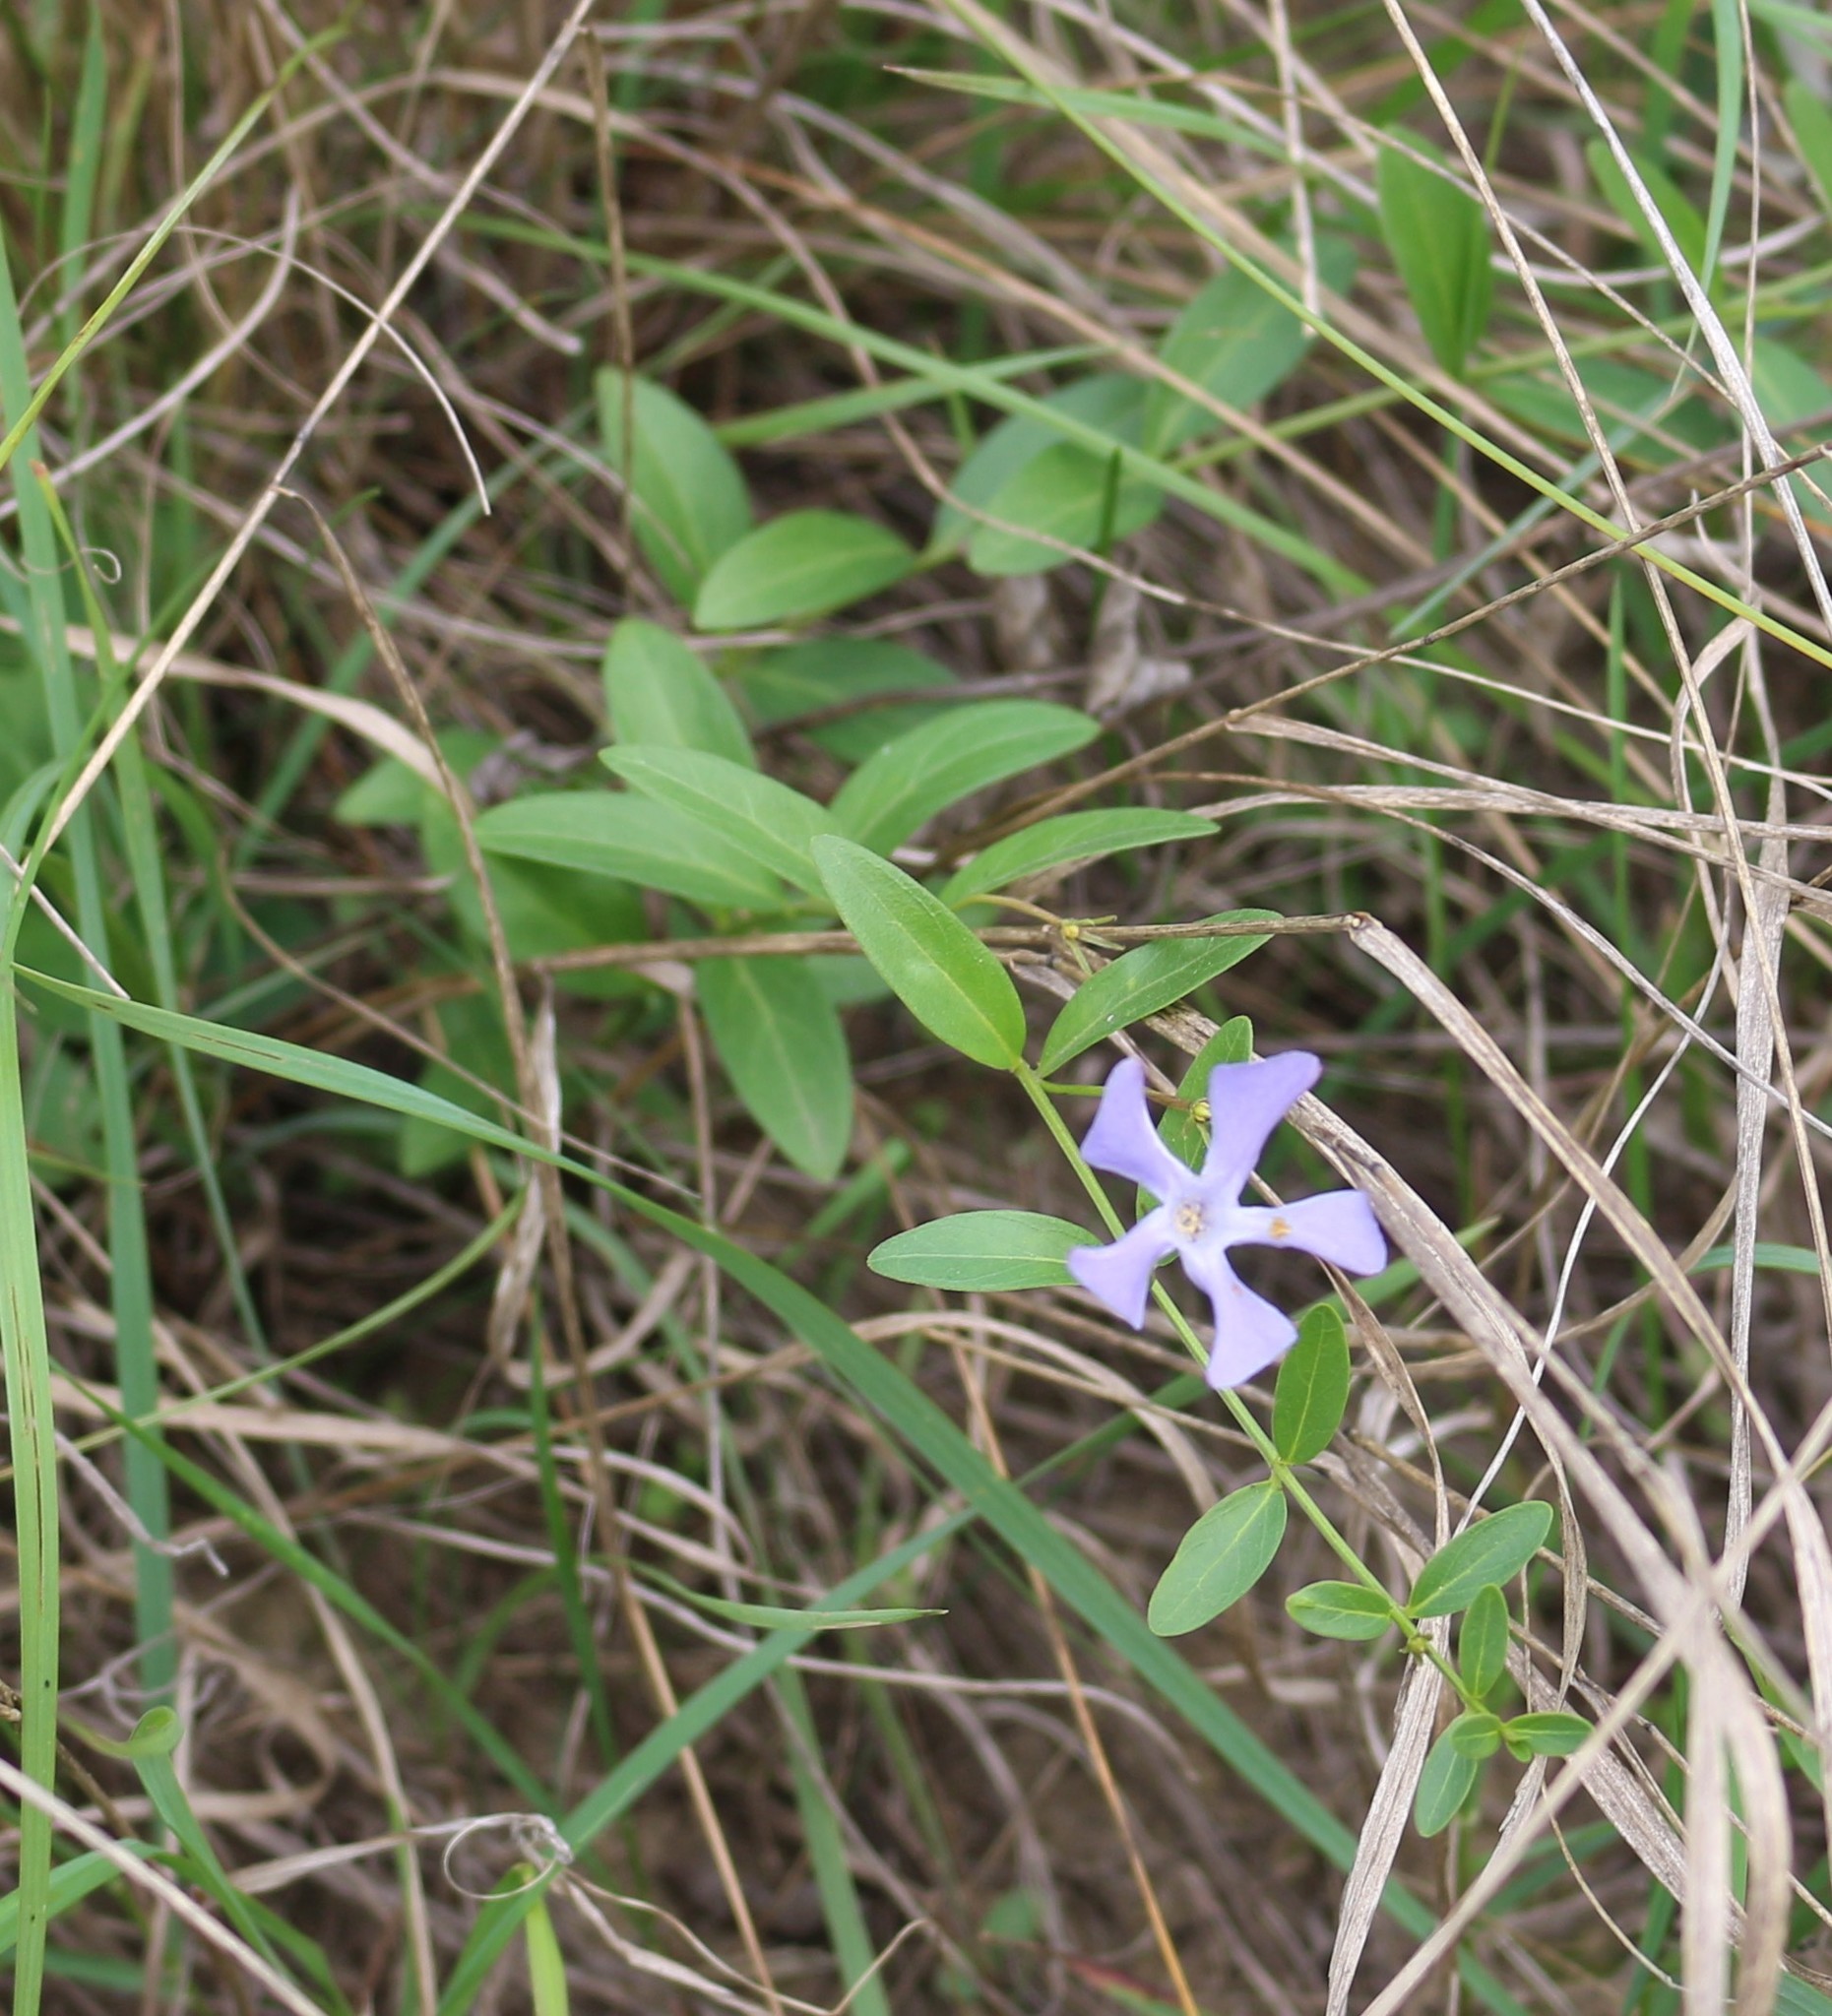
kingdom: Plantae
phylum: Tracheophyta
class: Magnoliopsida
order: Gentianales
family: Apocynaceae
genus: Vinca
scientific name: Vinca herbacea
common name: Herbaceous periwinkle
